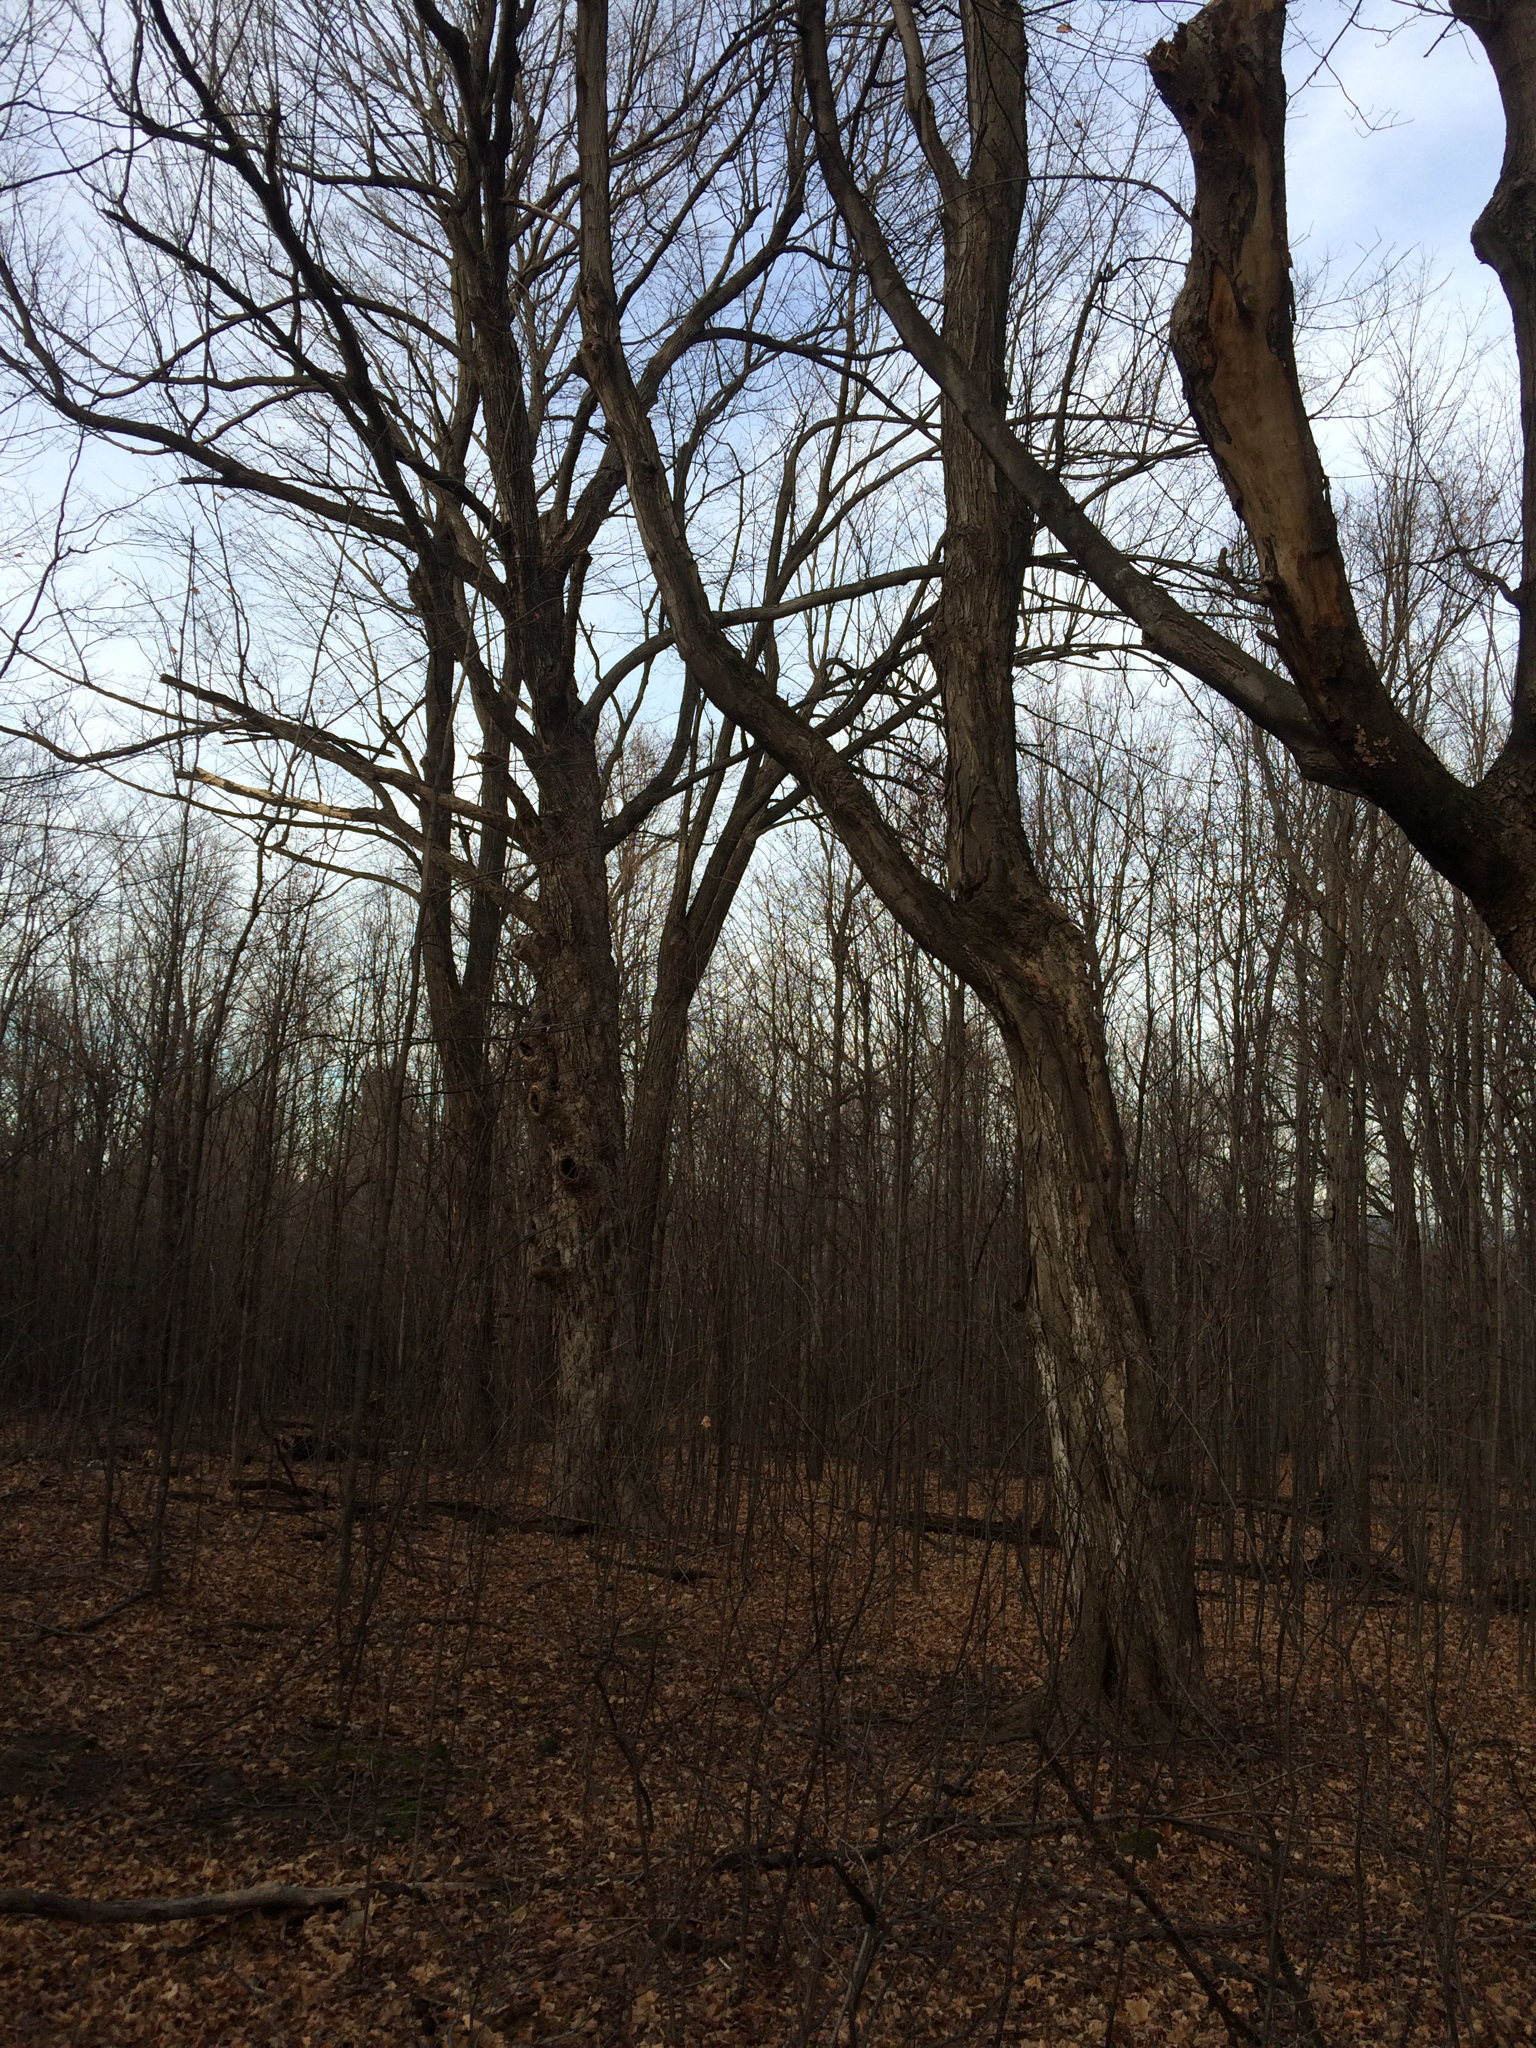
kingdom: Plantae
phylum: Tracheophyta
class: Magnoliopsida
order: Sapindales
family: Sapindaceae
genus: Acer
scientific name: Acer saccharum
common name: Sugar maple
